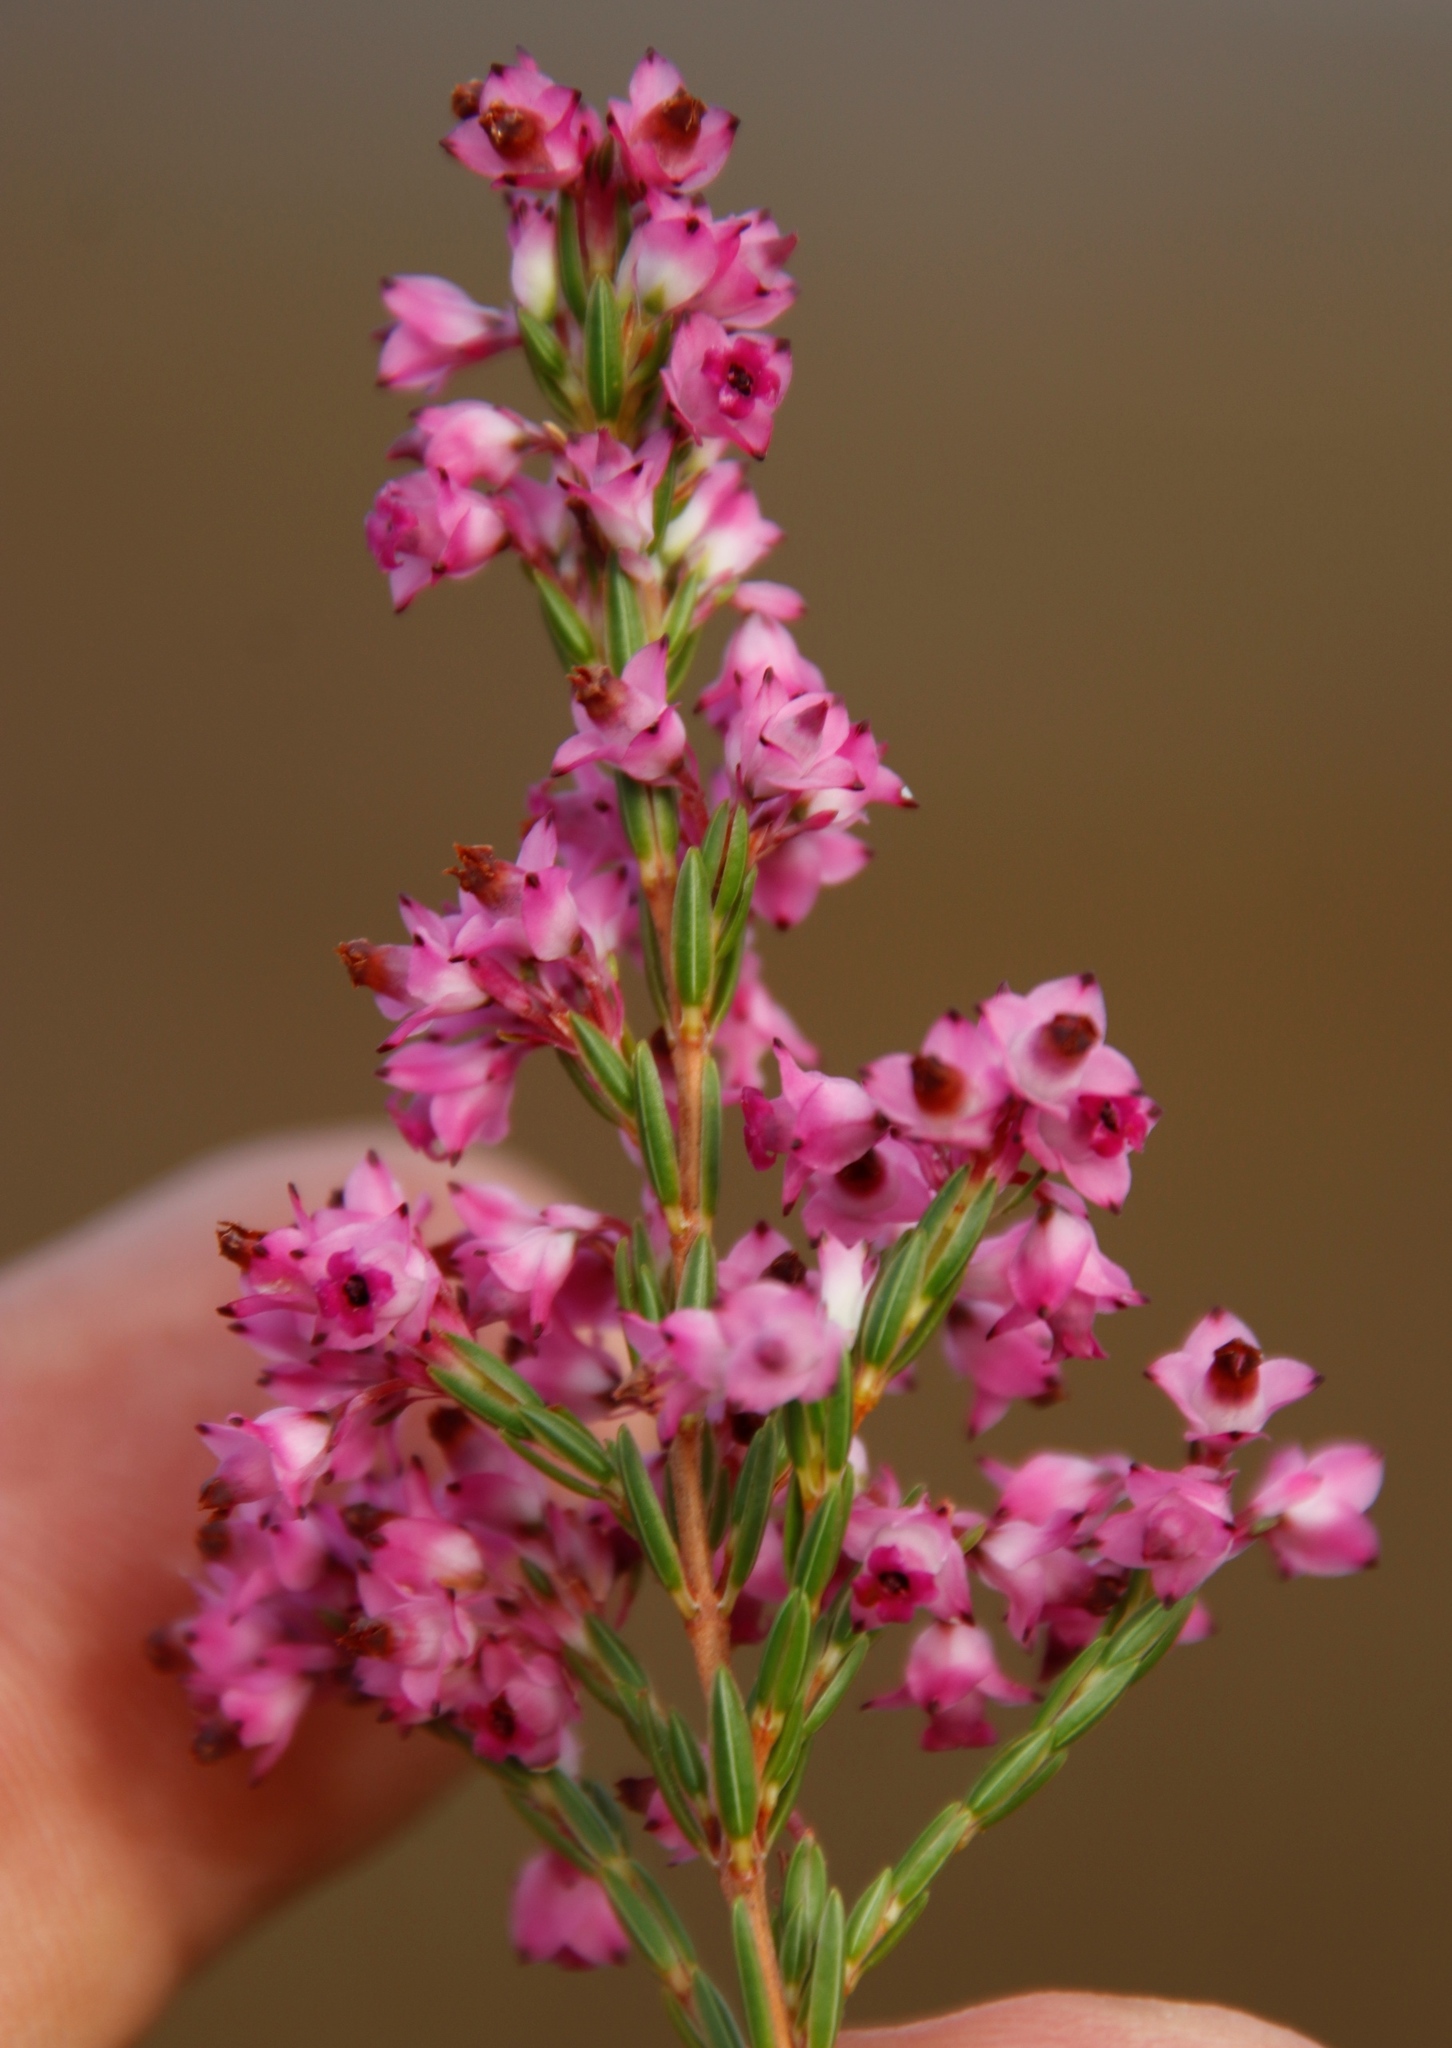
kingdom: Plantae
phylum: Tracheophyta
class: Magnoliopsida
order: Ericales
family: Ericaceae
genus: Erica
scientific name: Erica corifolia
